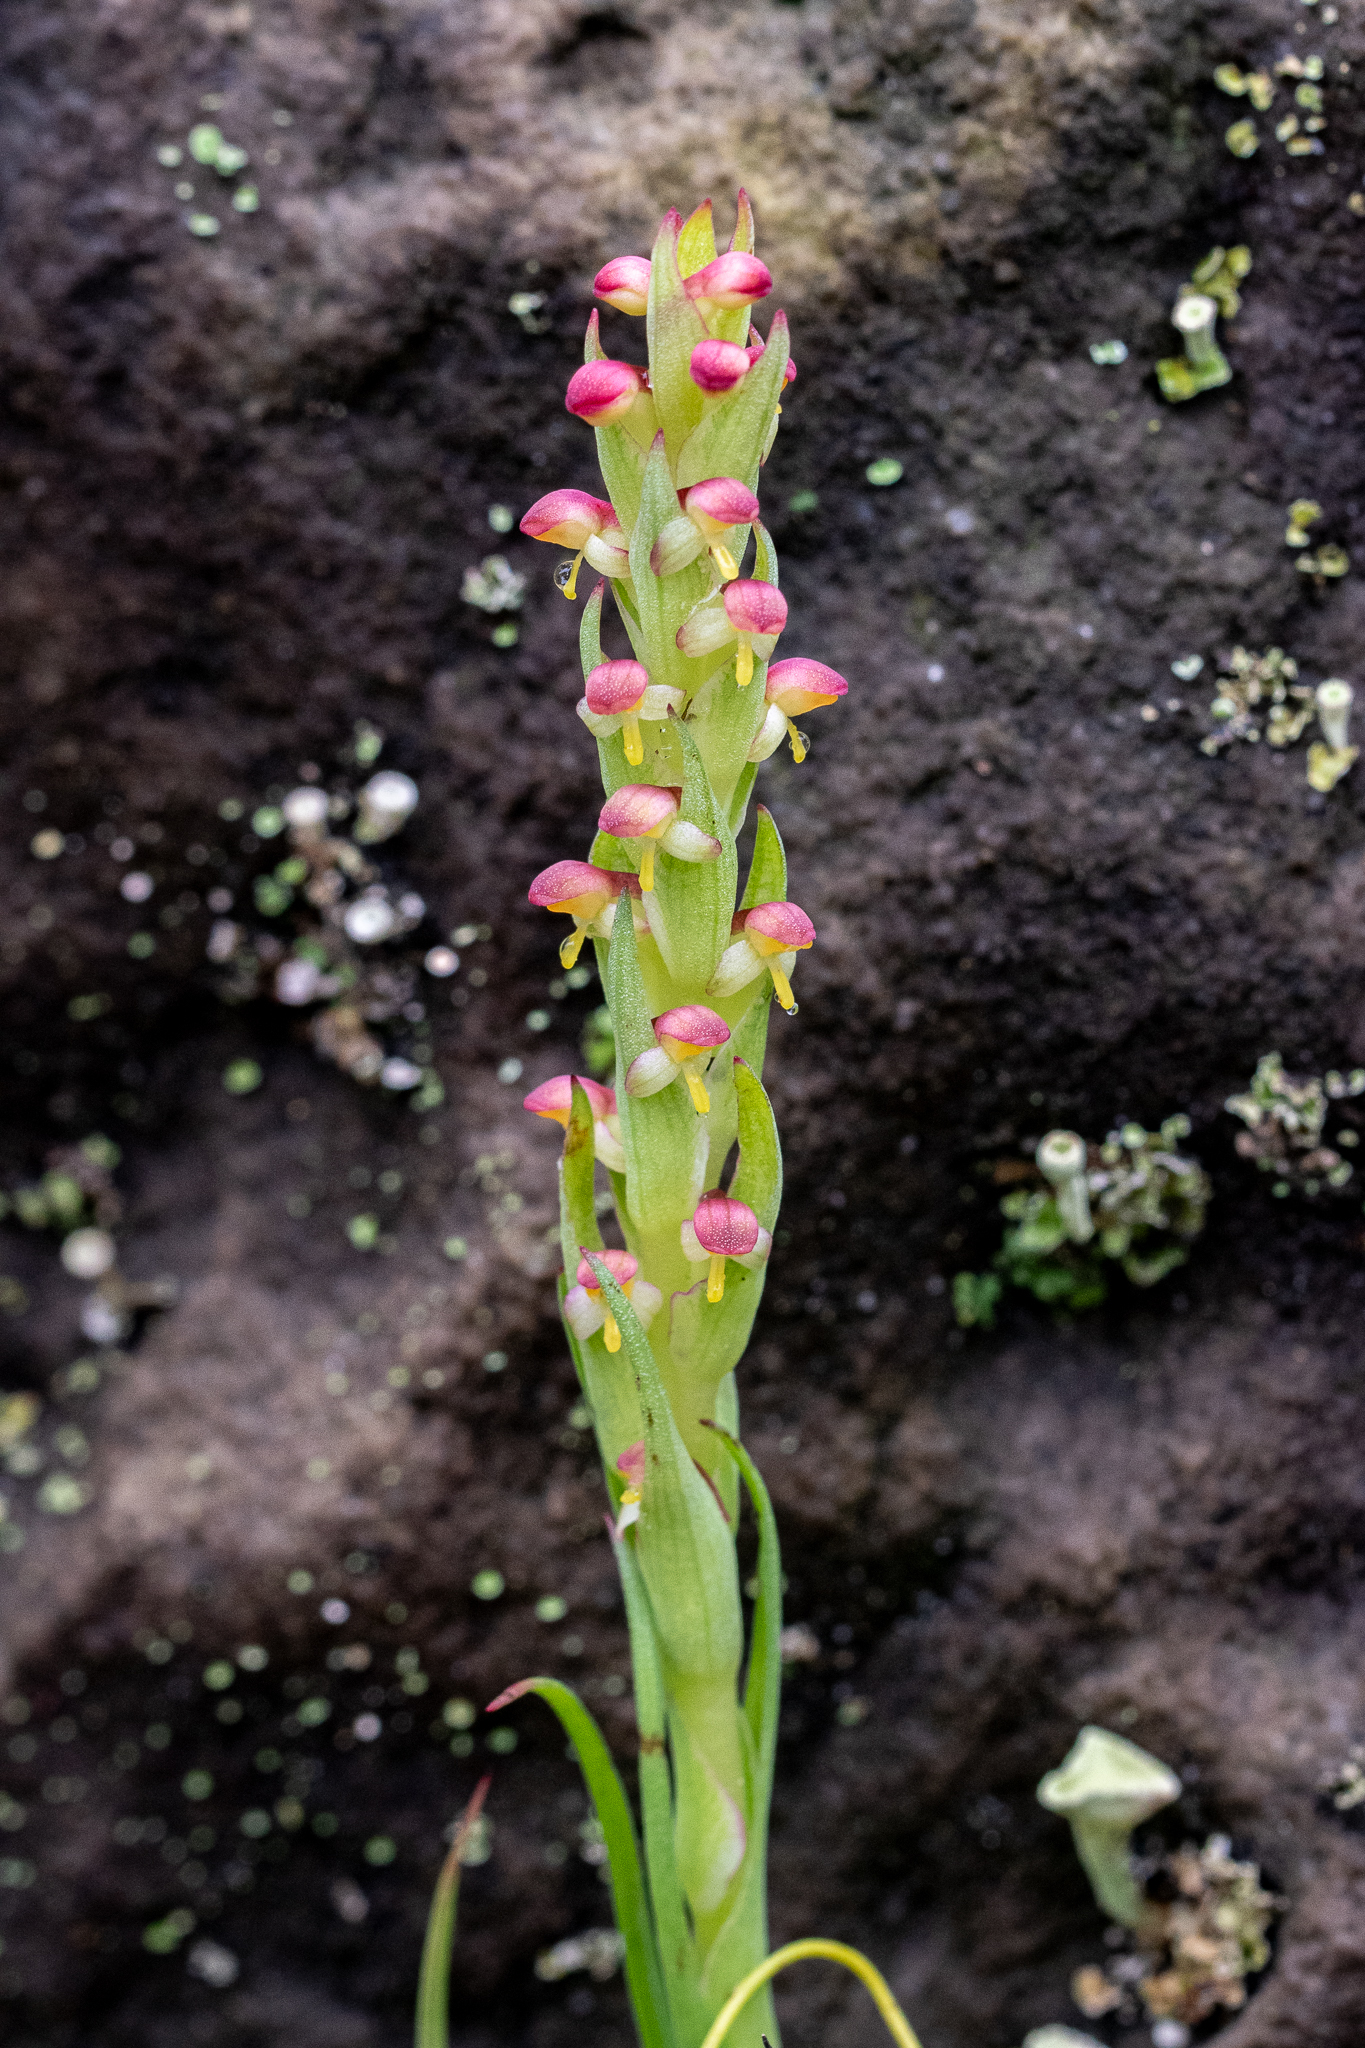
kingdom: Plantae
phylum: Tracheophyta
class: Liliopsida
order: Asparagales
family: Orchidaceae
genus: Disa
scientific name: Disa bracteata
